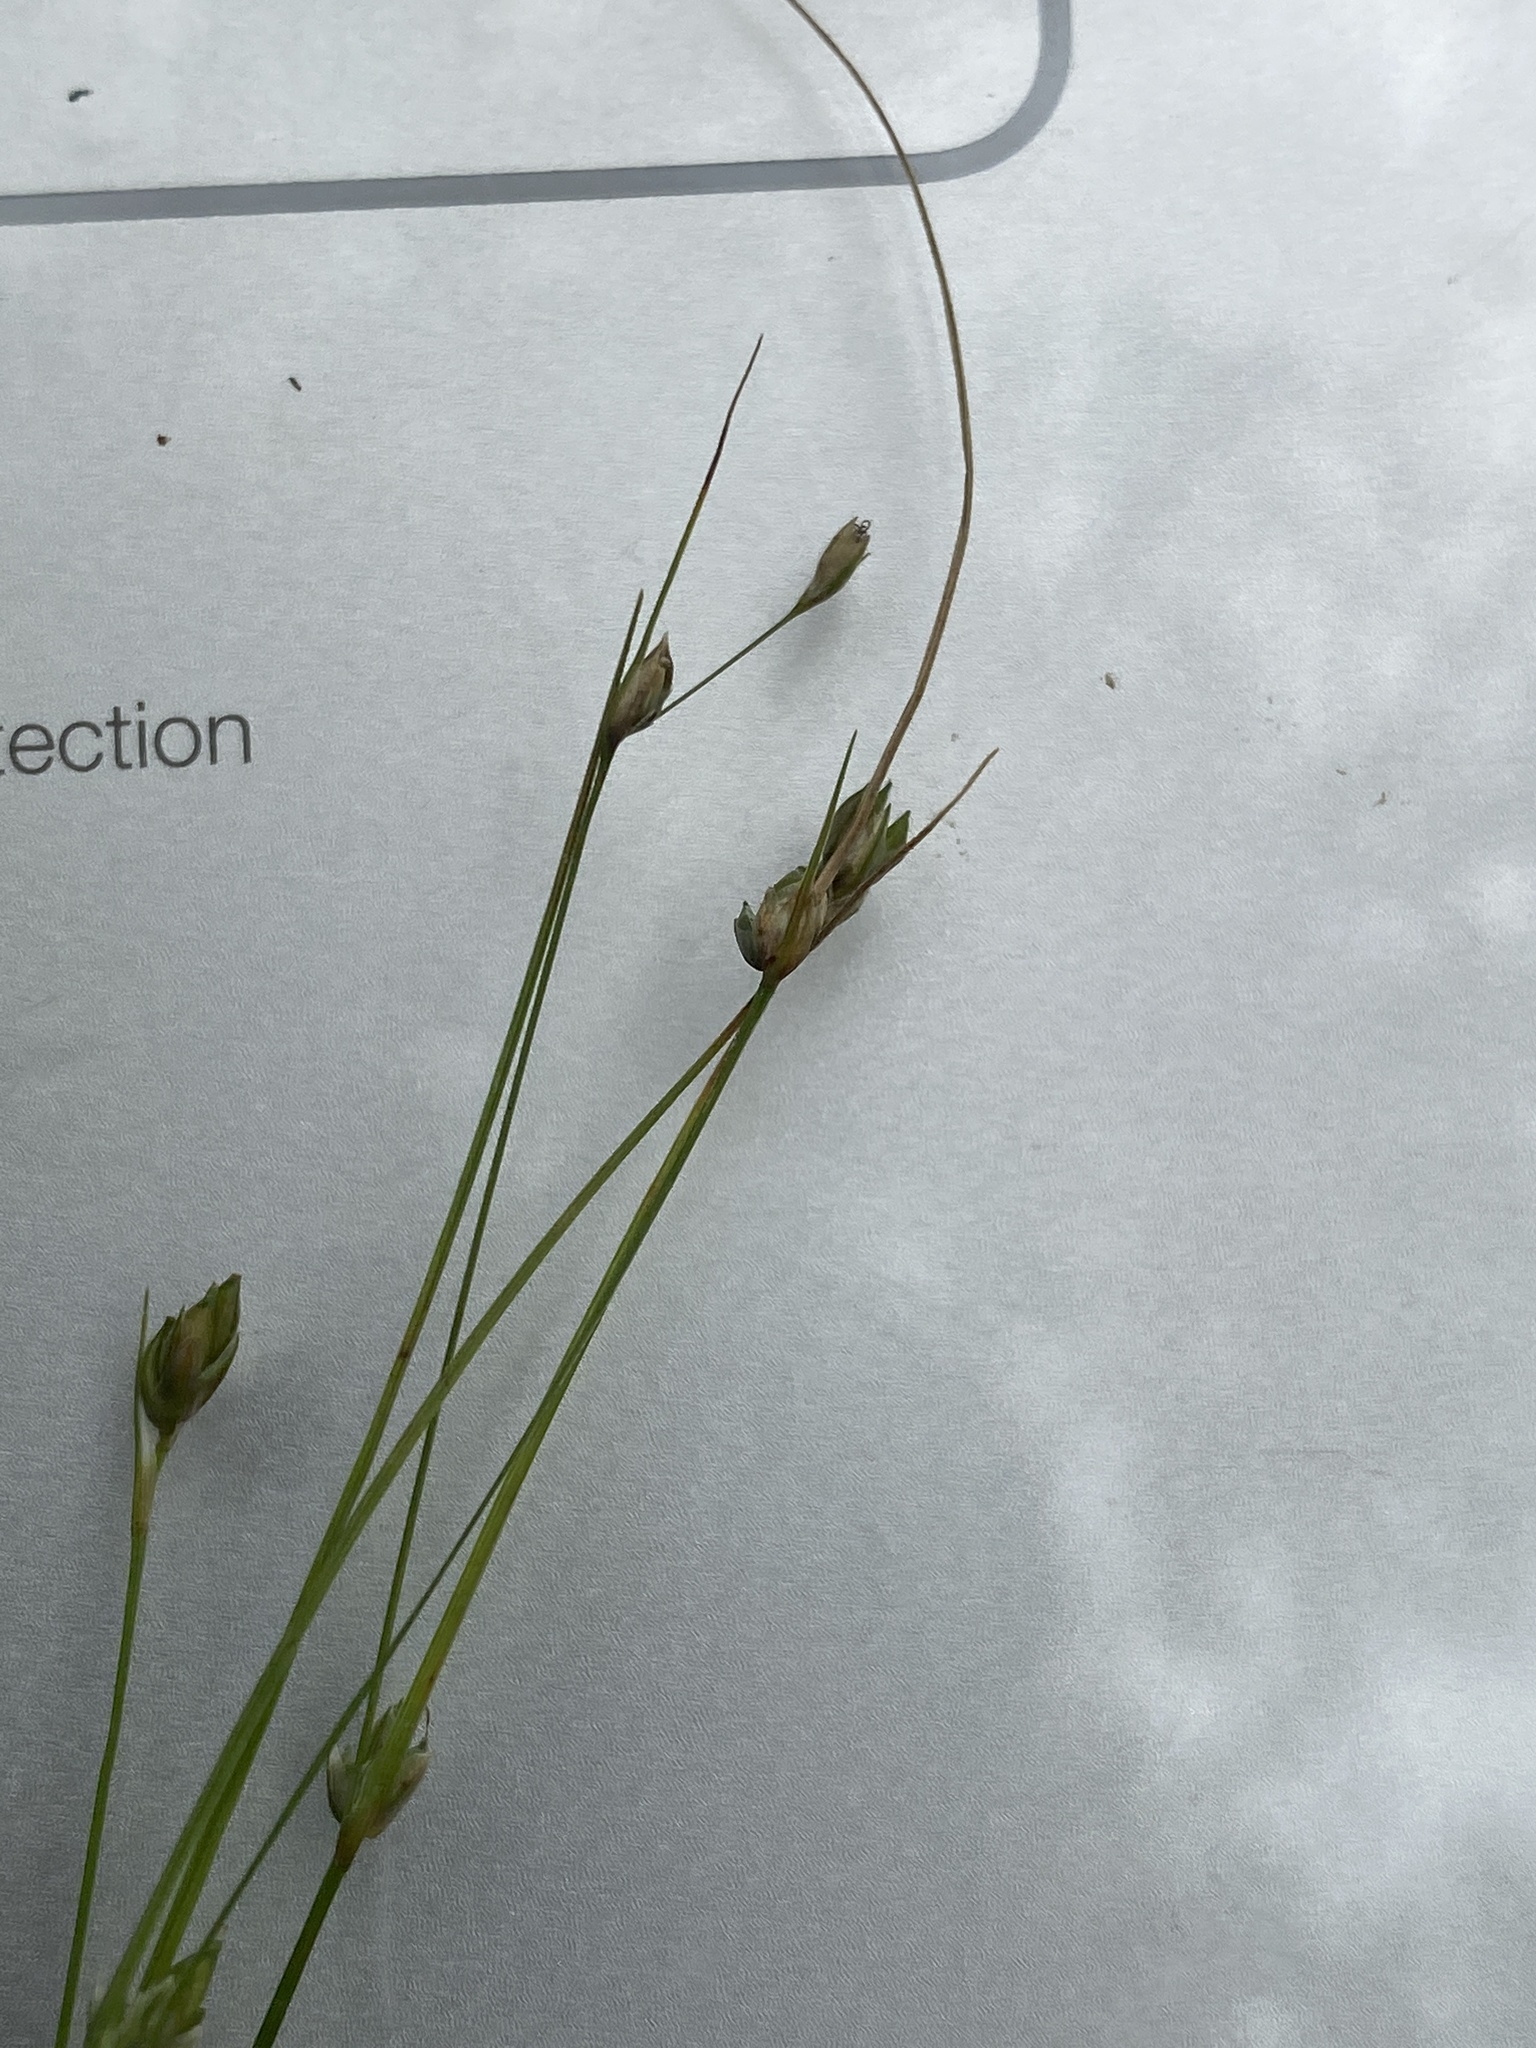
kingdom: Plantae
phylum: Tracheophyta
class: Liliopsida
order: Poales
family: Cyperaceae
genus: Carex
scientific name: Carex trisperma
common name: Three-seeded sedge
